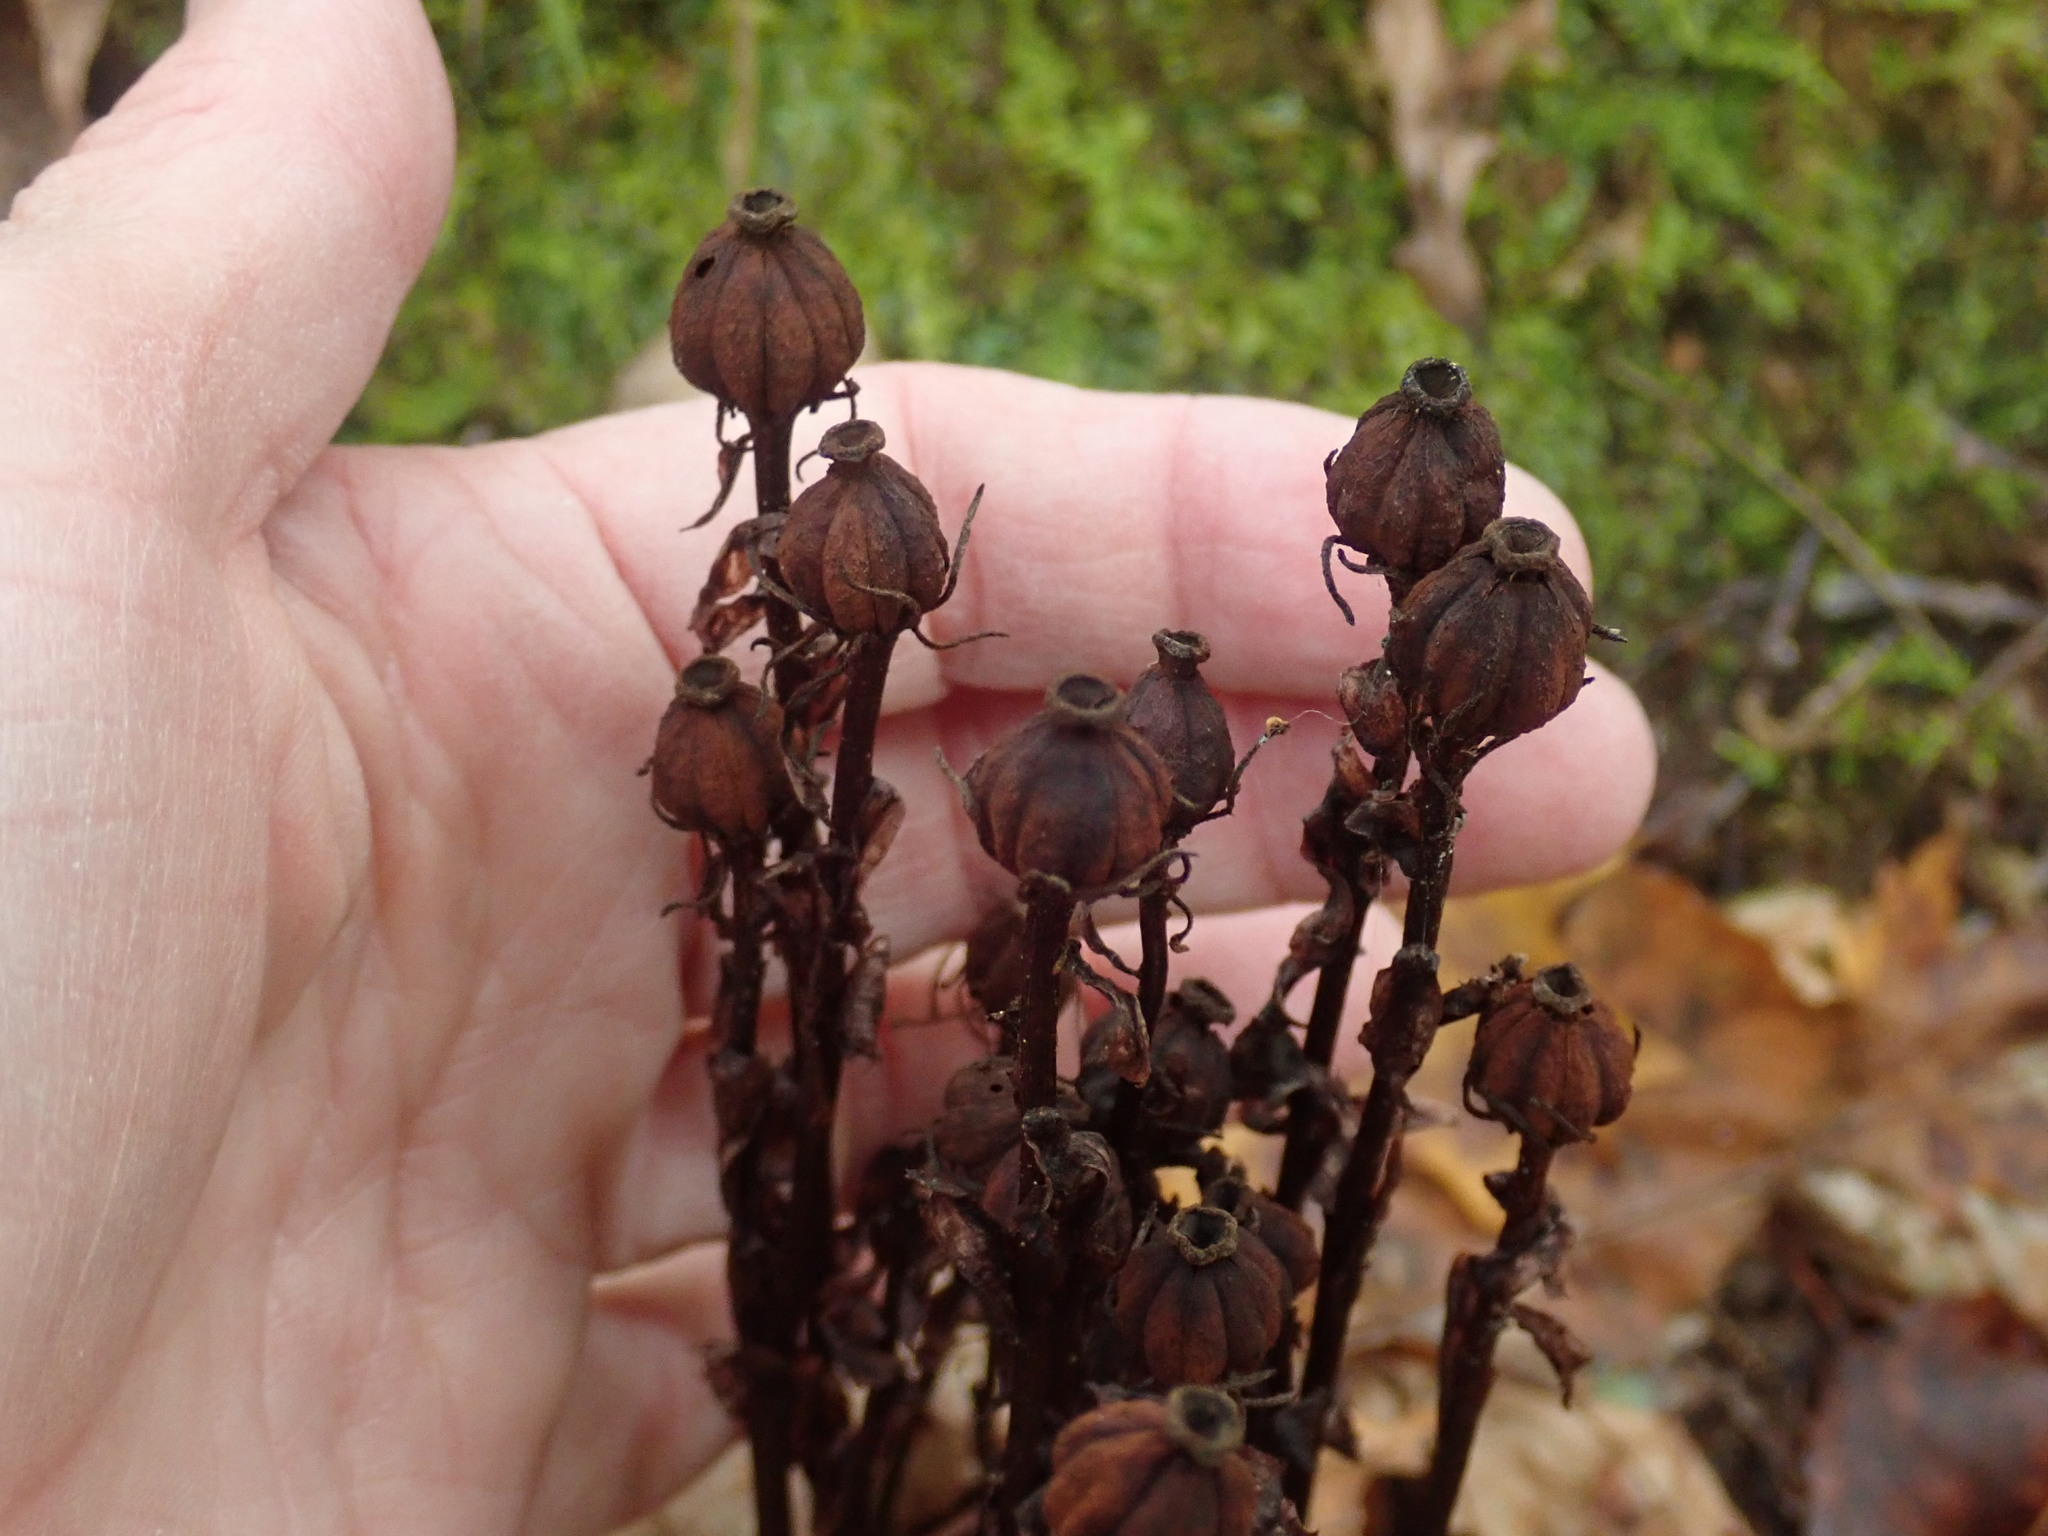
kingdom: Plantae
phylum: Tracheophyta
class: Magnoliopsida
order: Ericales
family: Ericaceae
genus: Monotropa
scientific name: Monotropa uniflora
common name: Convulsion root
